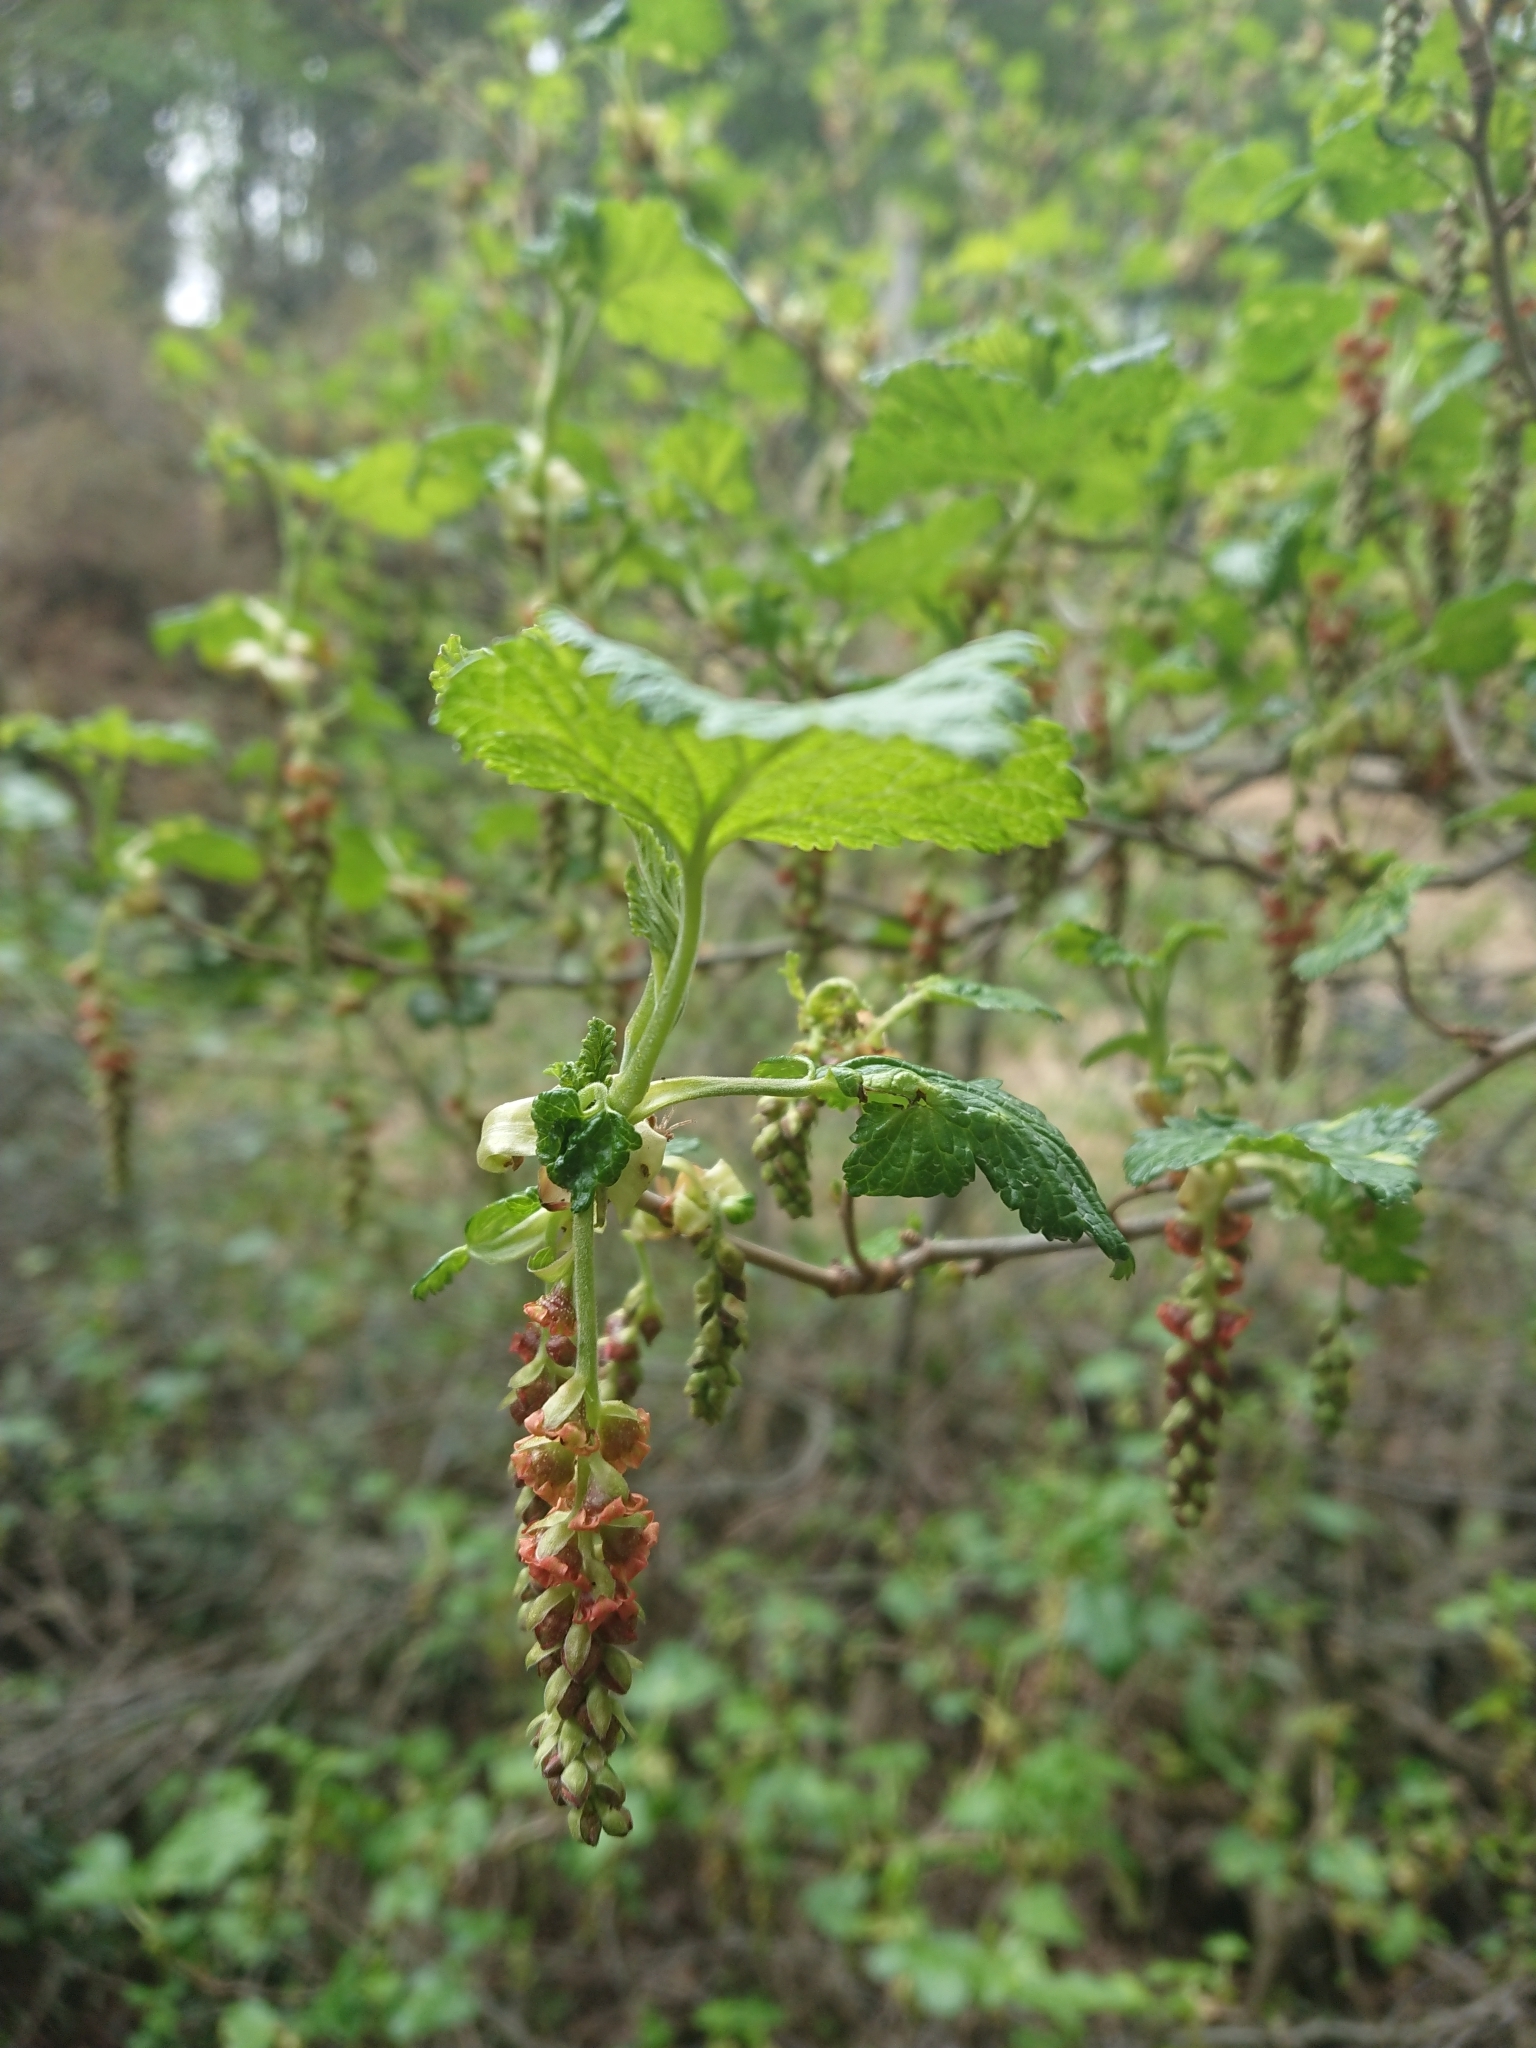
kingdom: Plantae
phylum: Tracheophyta
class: Magnoliopsida
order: Saxifragales
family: Grossulariaceae
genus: Ribes
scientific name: Ribes magellanicum
